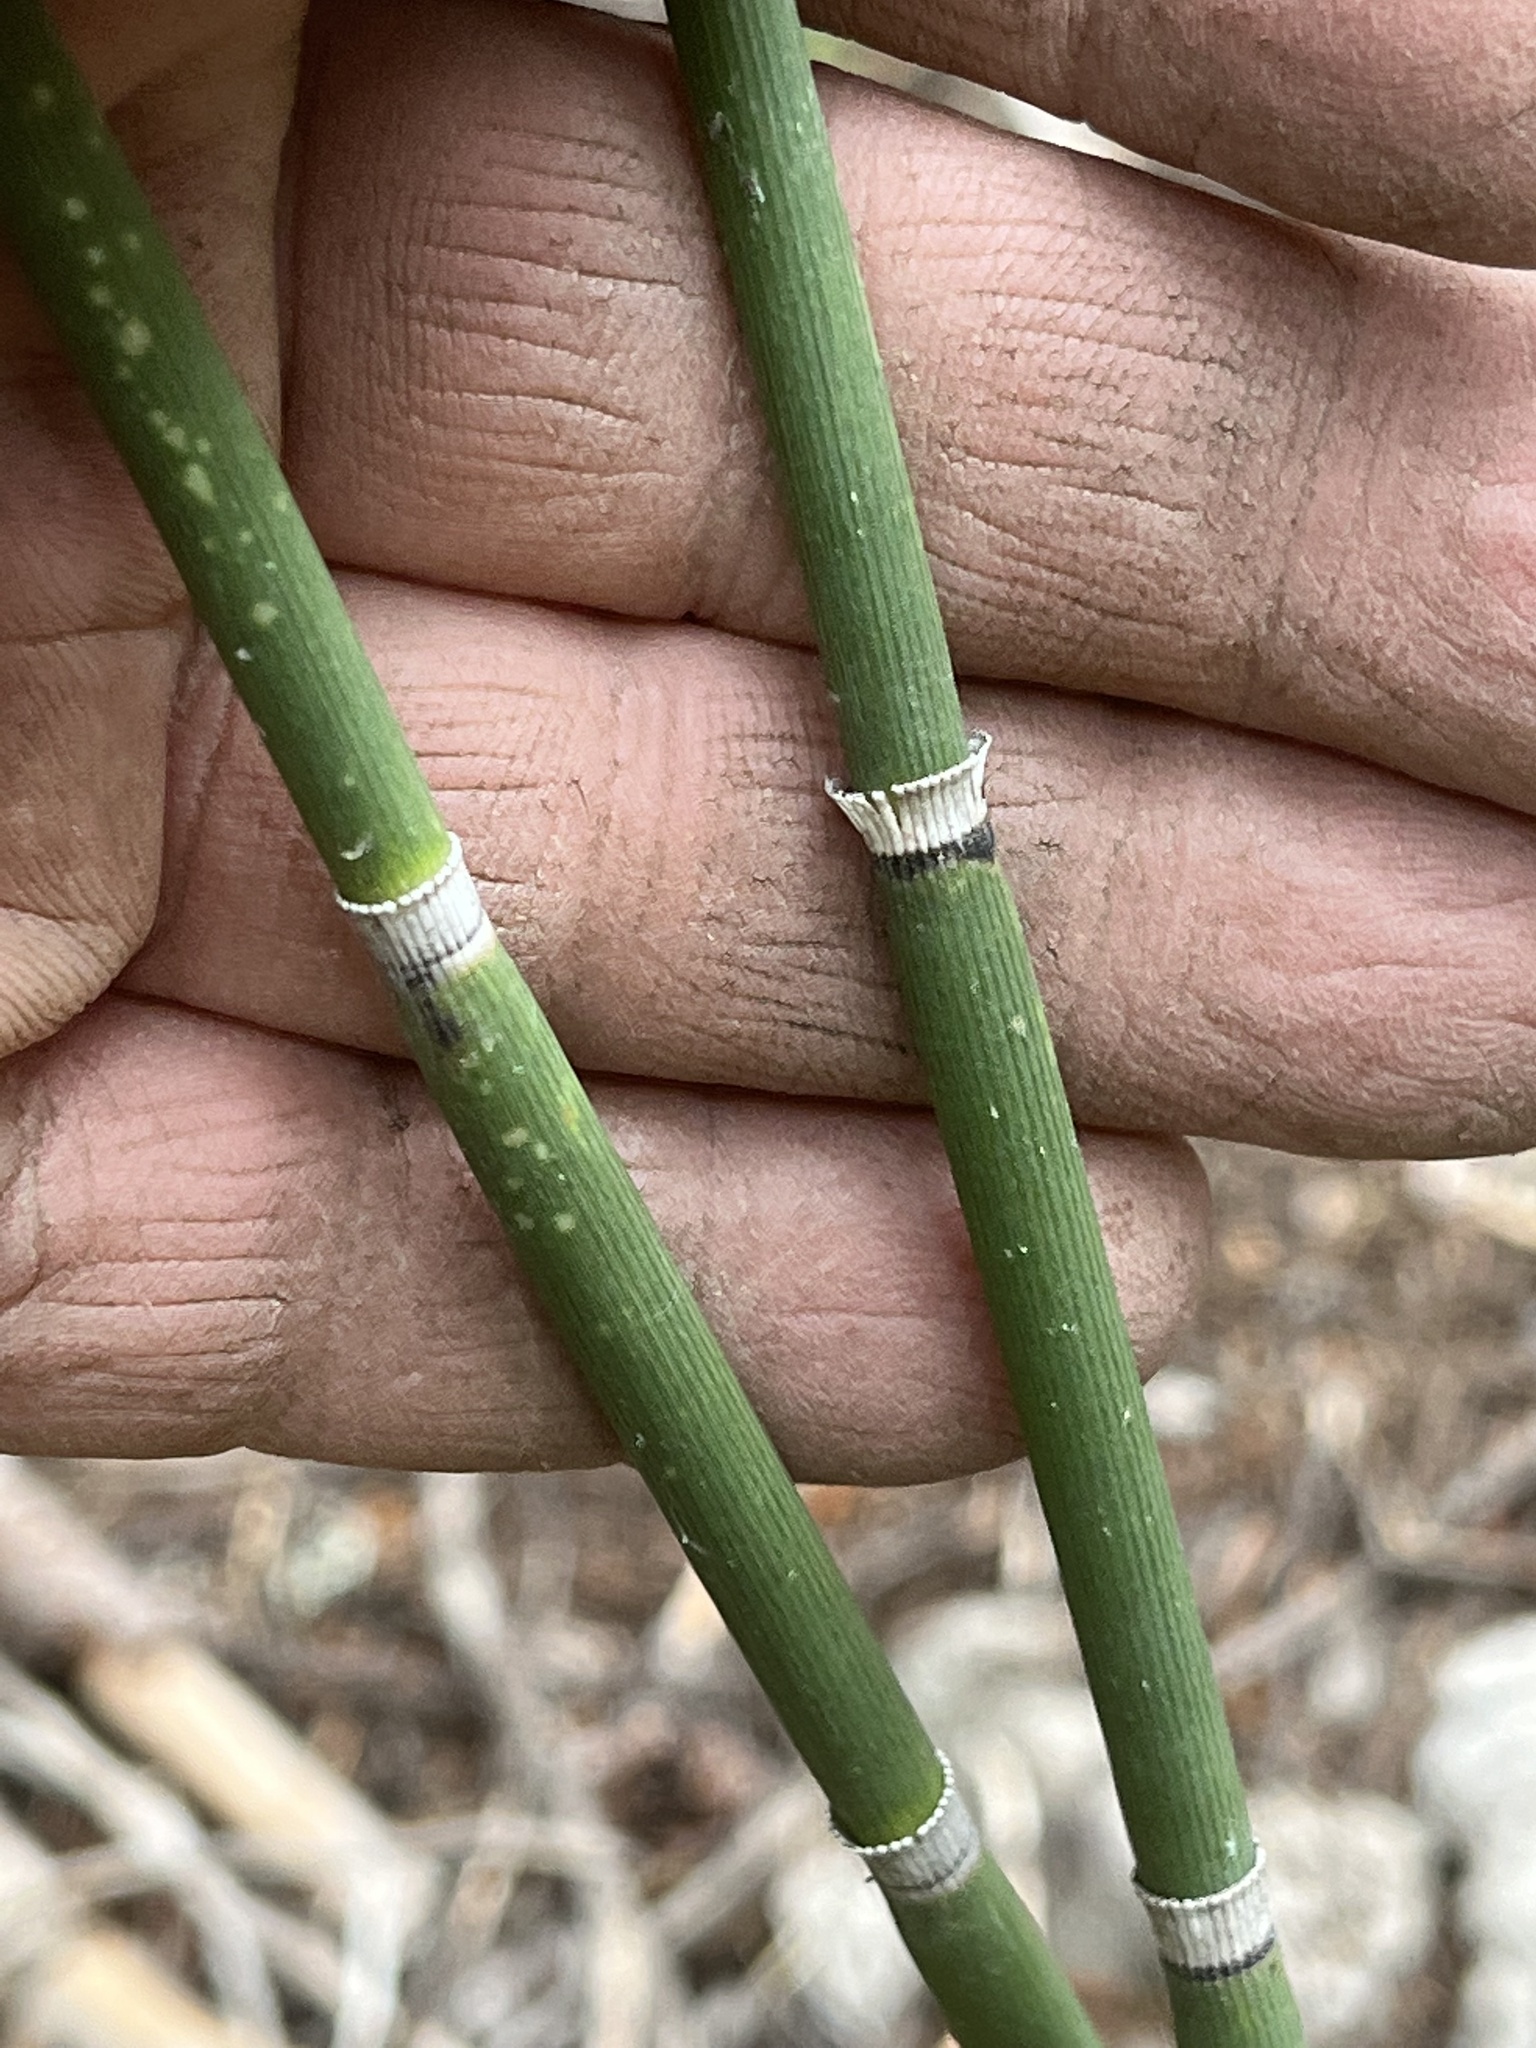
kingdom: Plantae
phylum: Tracheophyta
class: Polypodiopsida
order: Equisetales
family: Equisetaceae
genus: Equisetum
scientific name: Equisetum hyemale
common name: Rough horsetail
